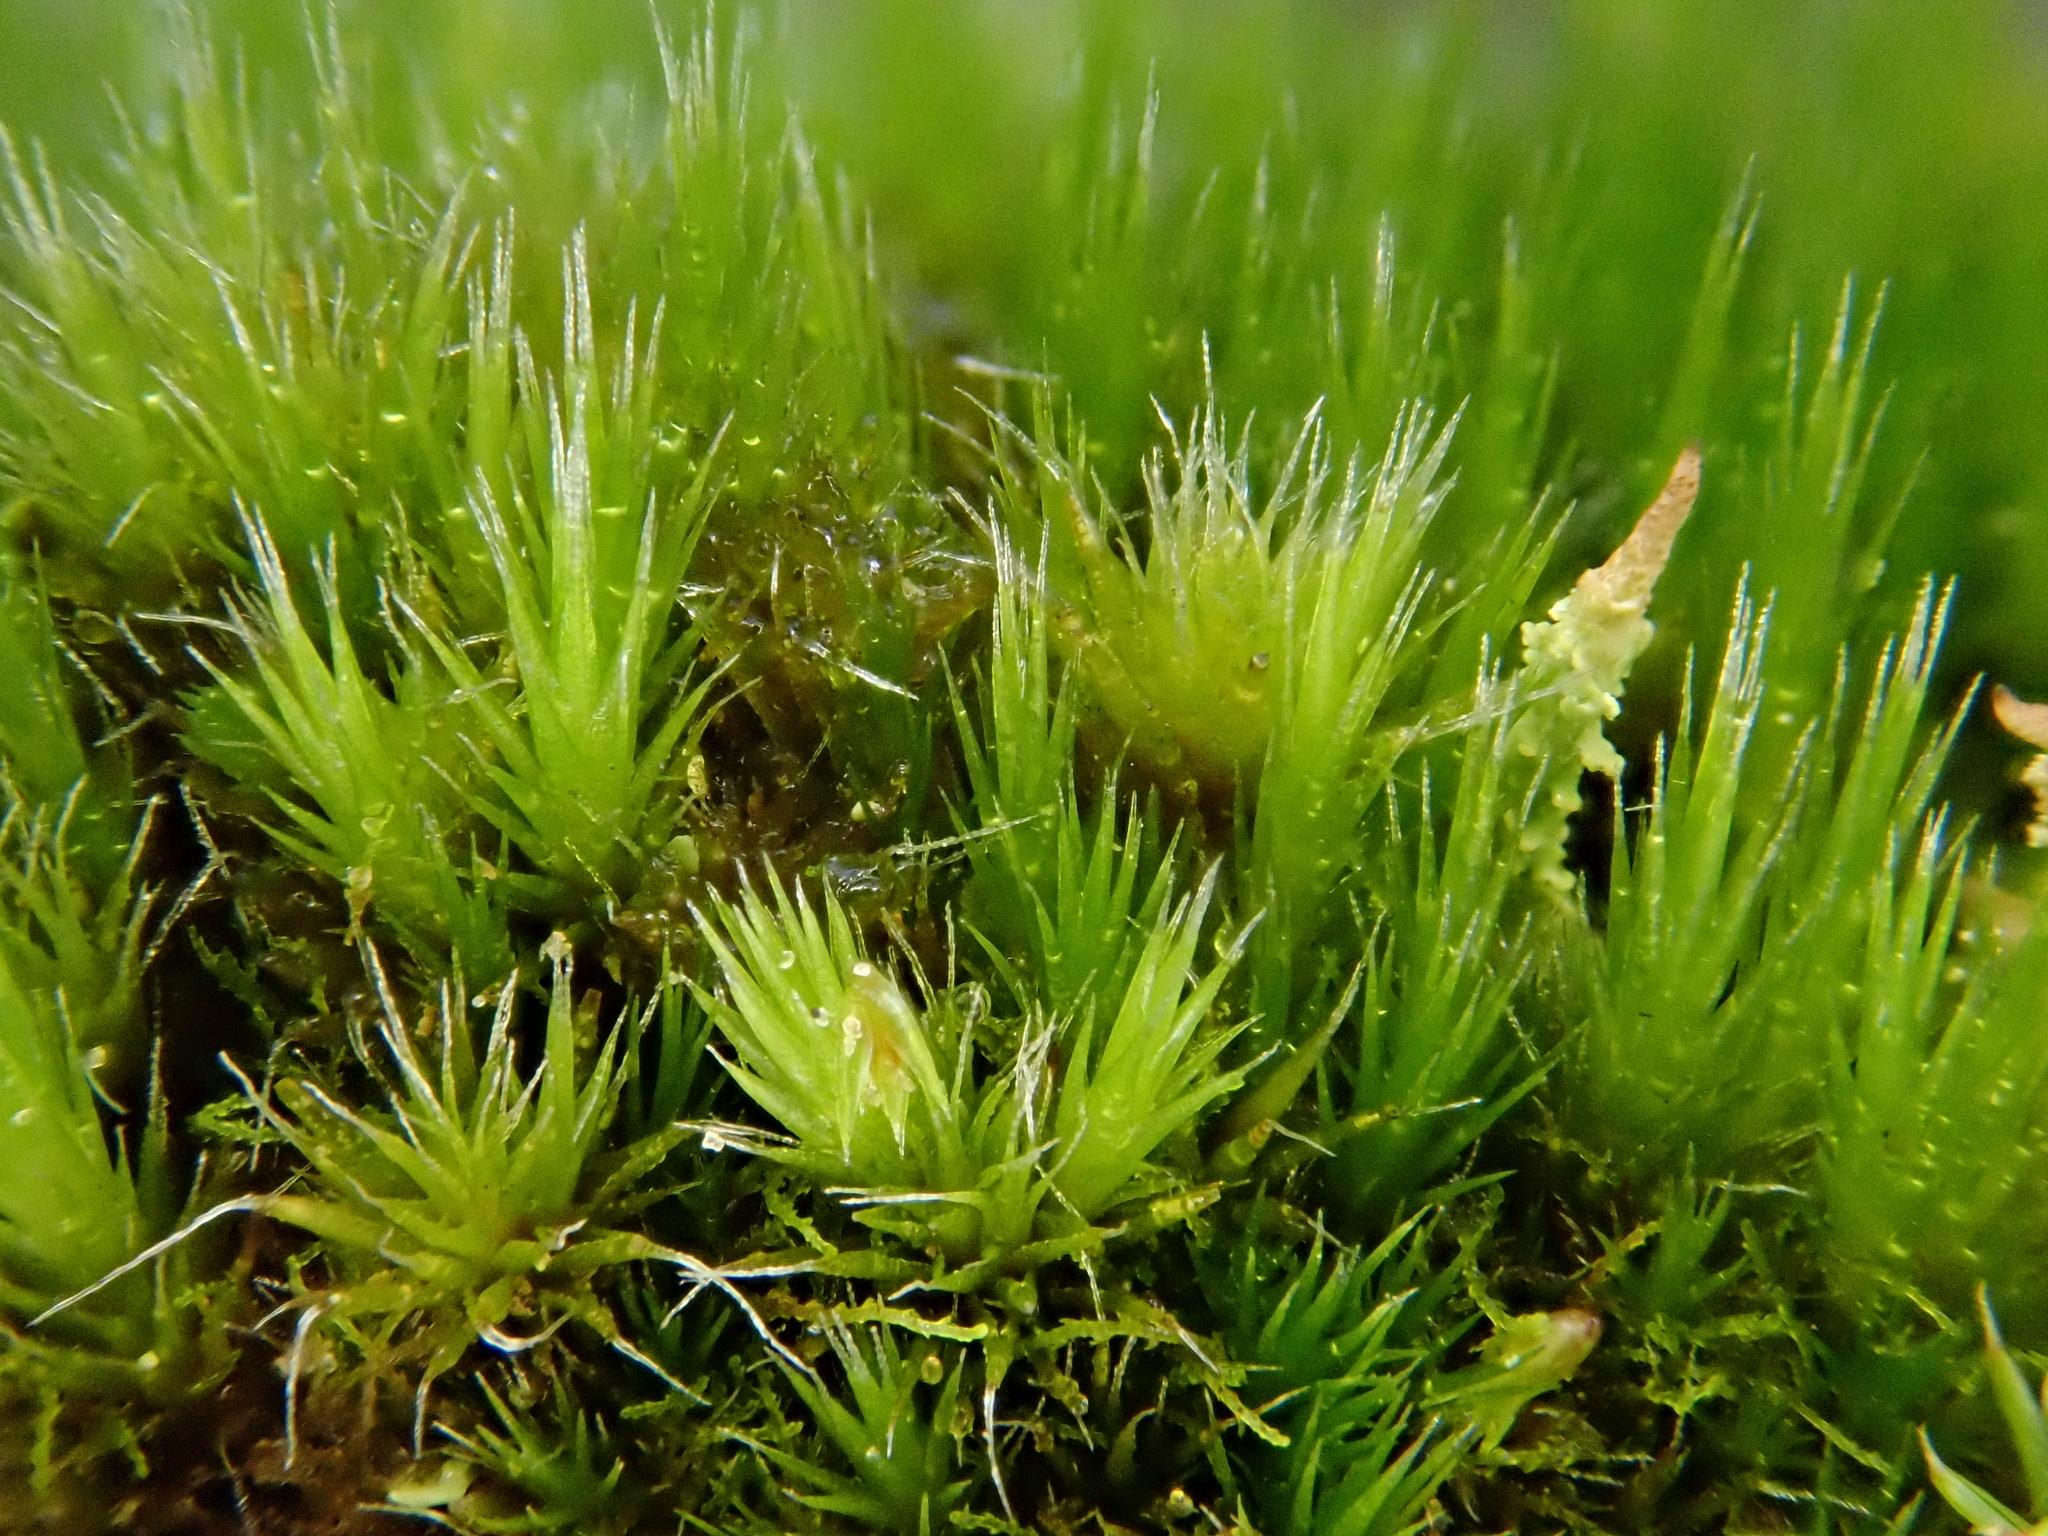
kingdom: Plantae
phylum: Bryophyta
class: Bryopsida
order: Dicranales
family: Leucobryaceae
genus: Campylopus
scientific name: Campylopus introflexus
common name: Heath star moss
